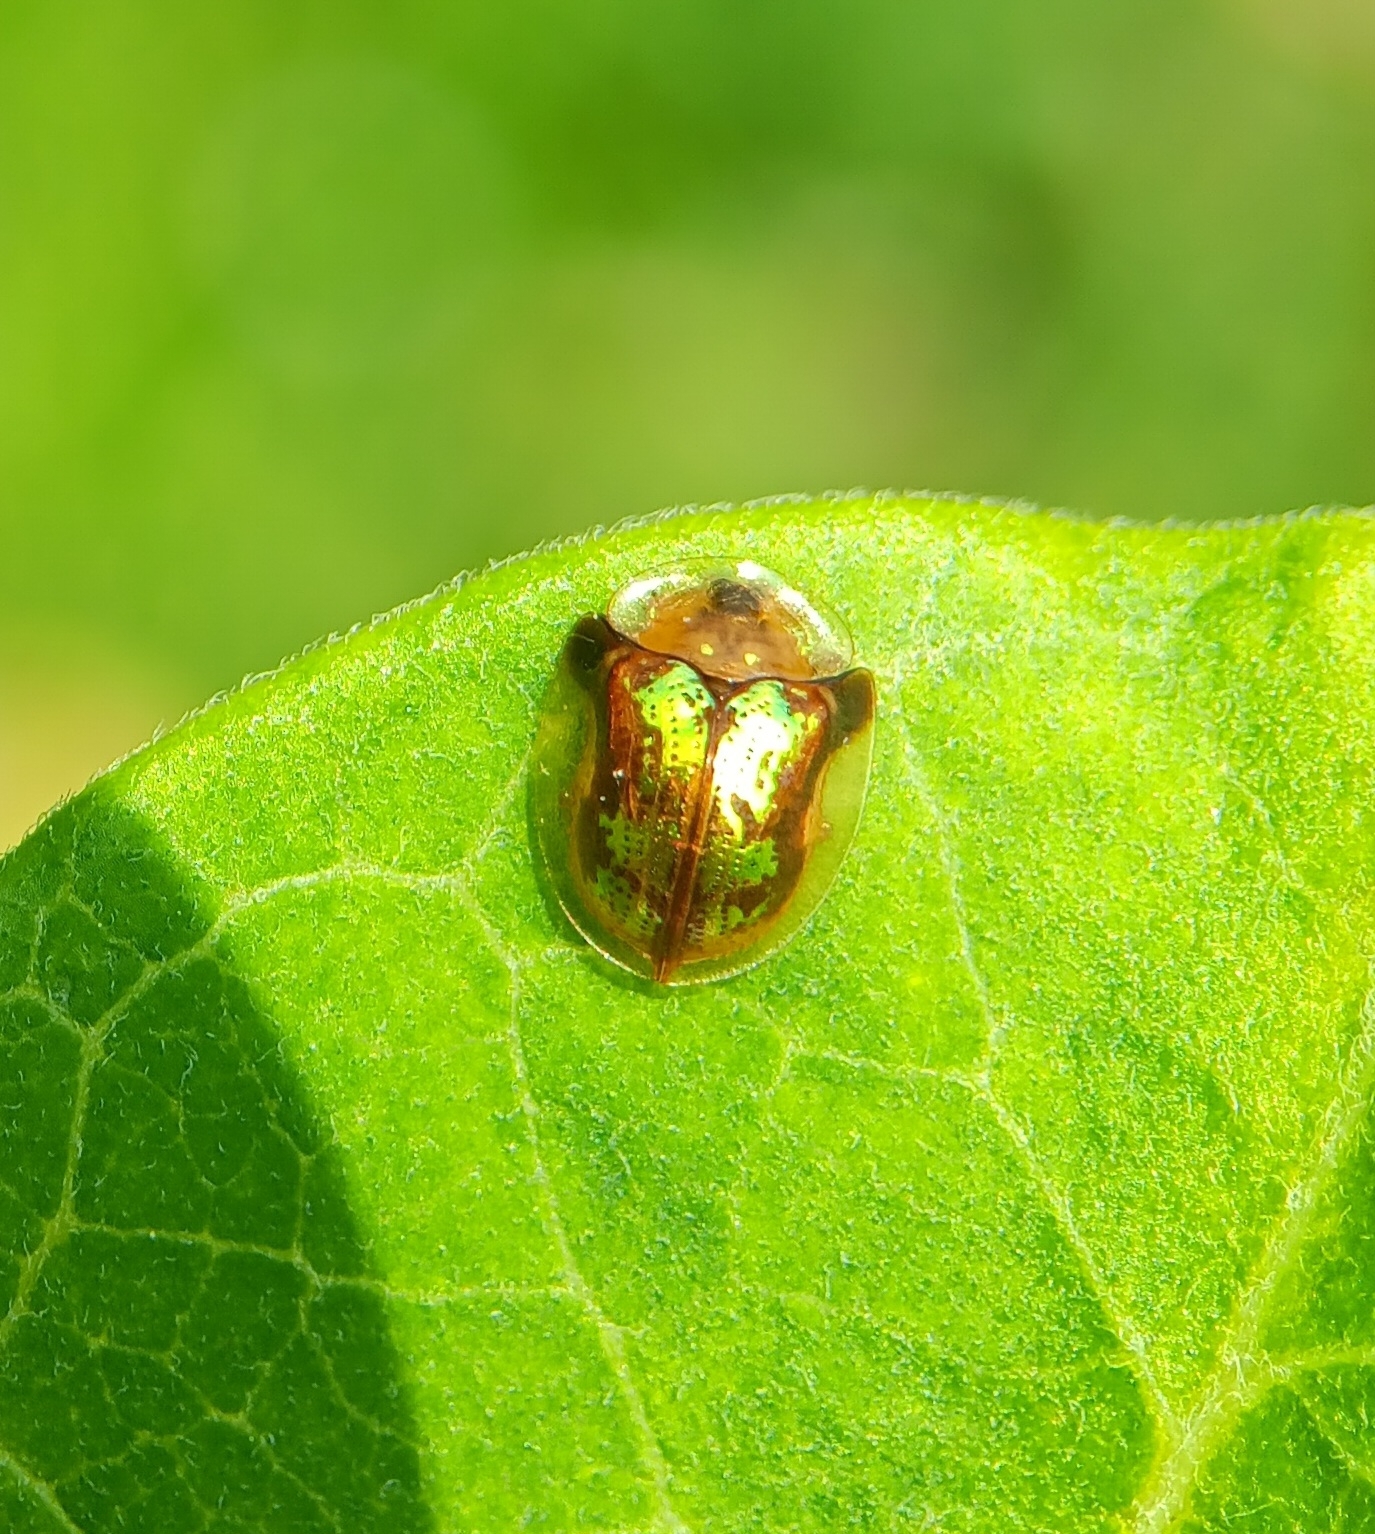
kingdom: Animalia
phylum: Arthropoda
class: Insecta
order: Coleoptera
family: Chrysomelidae
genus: Deloyala
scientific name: Deloyala guttata
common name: Mottled tortoise beetle
